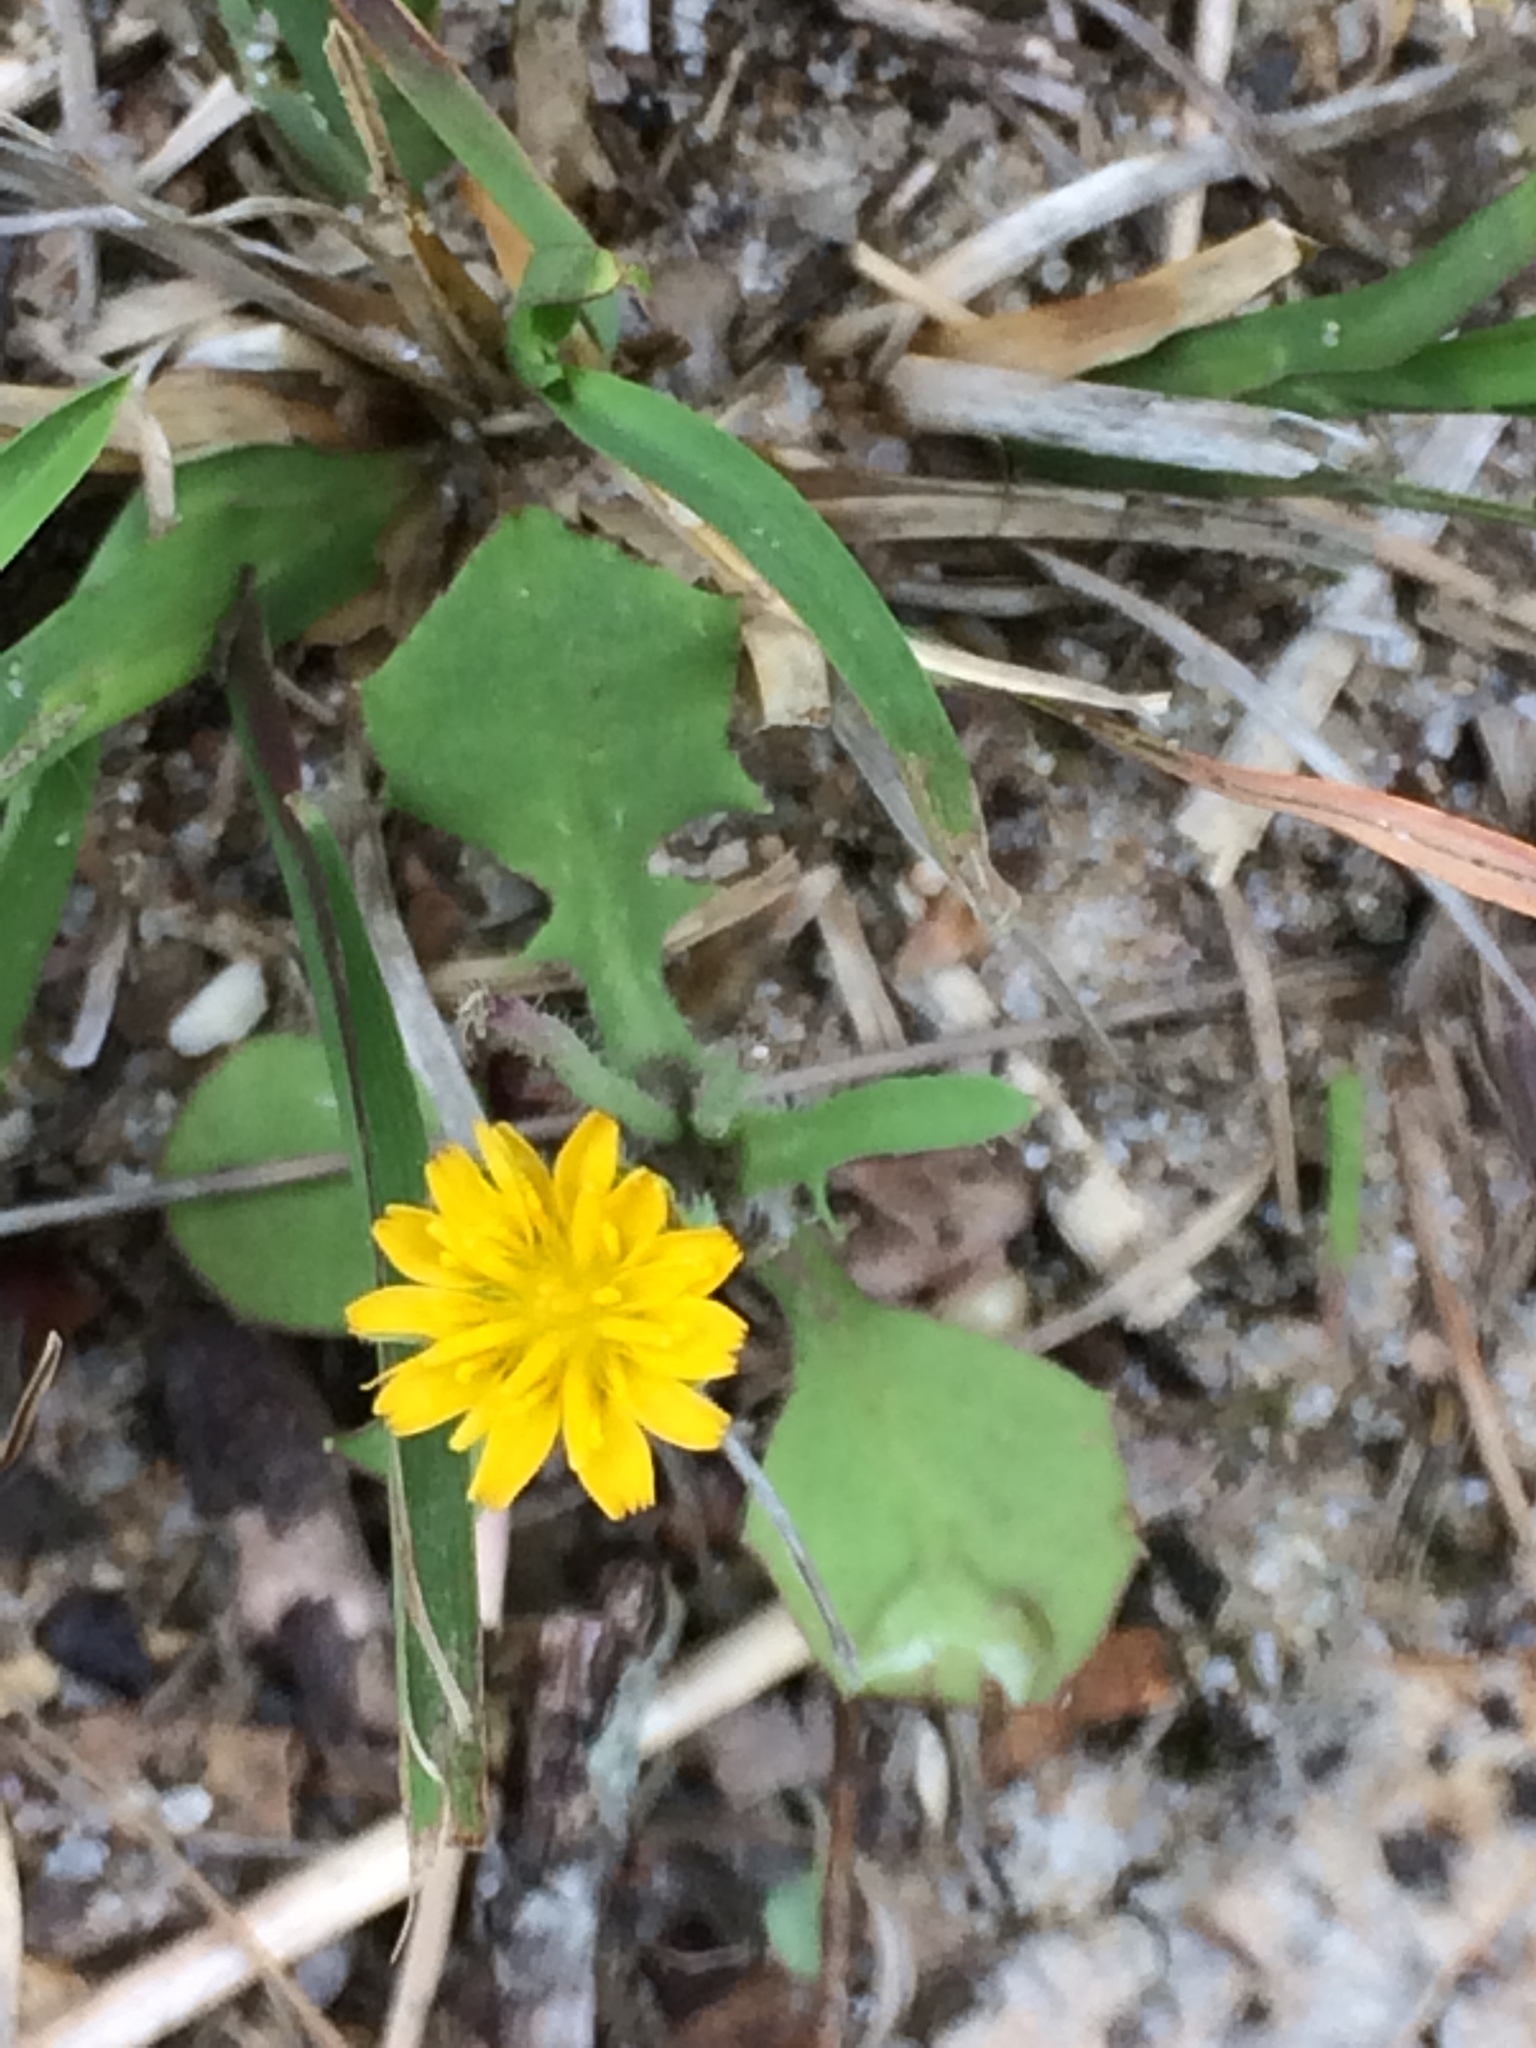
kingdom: Plantae
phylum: Tracheophyta
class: Magnoliopsida
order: Asterales
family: Asteraceae
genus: Krigia
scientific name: Krigia virginica
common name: Virginia dwarf-dandelion
